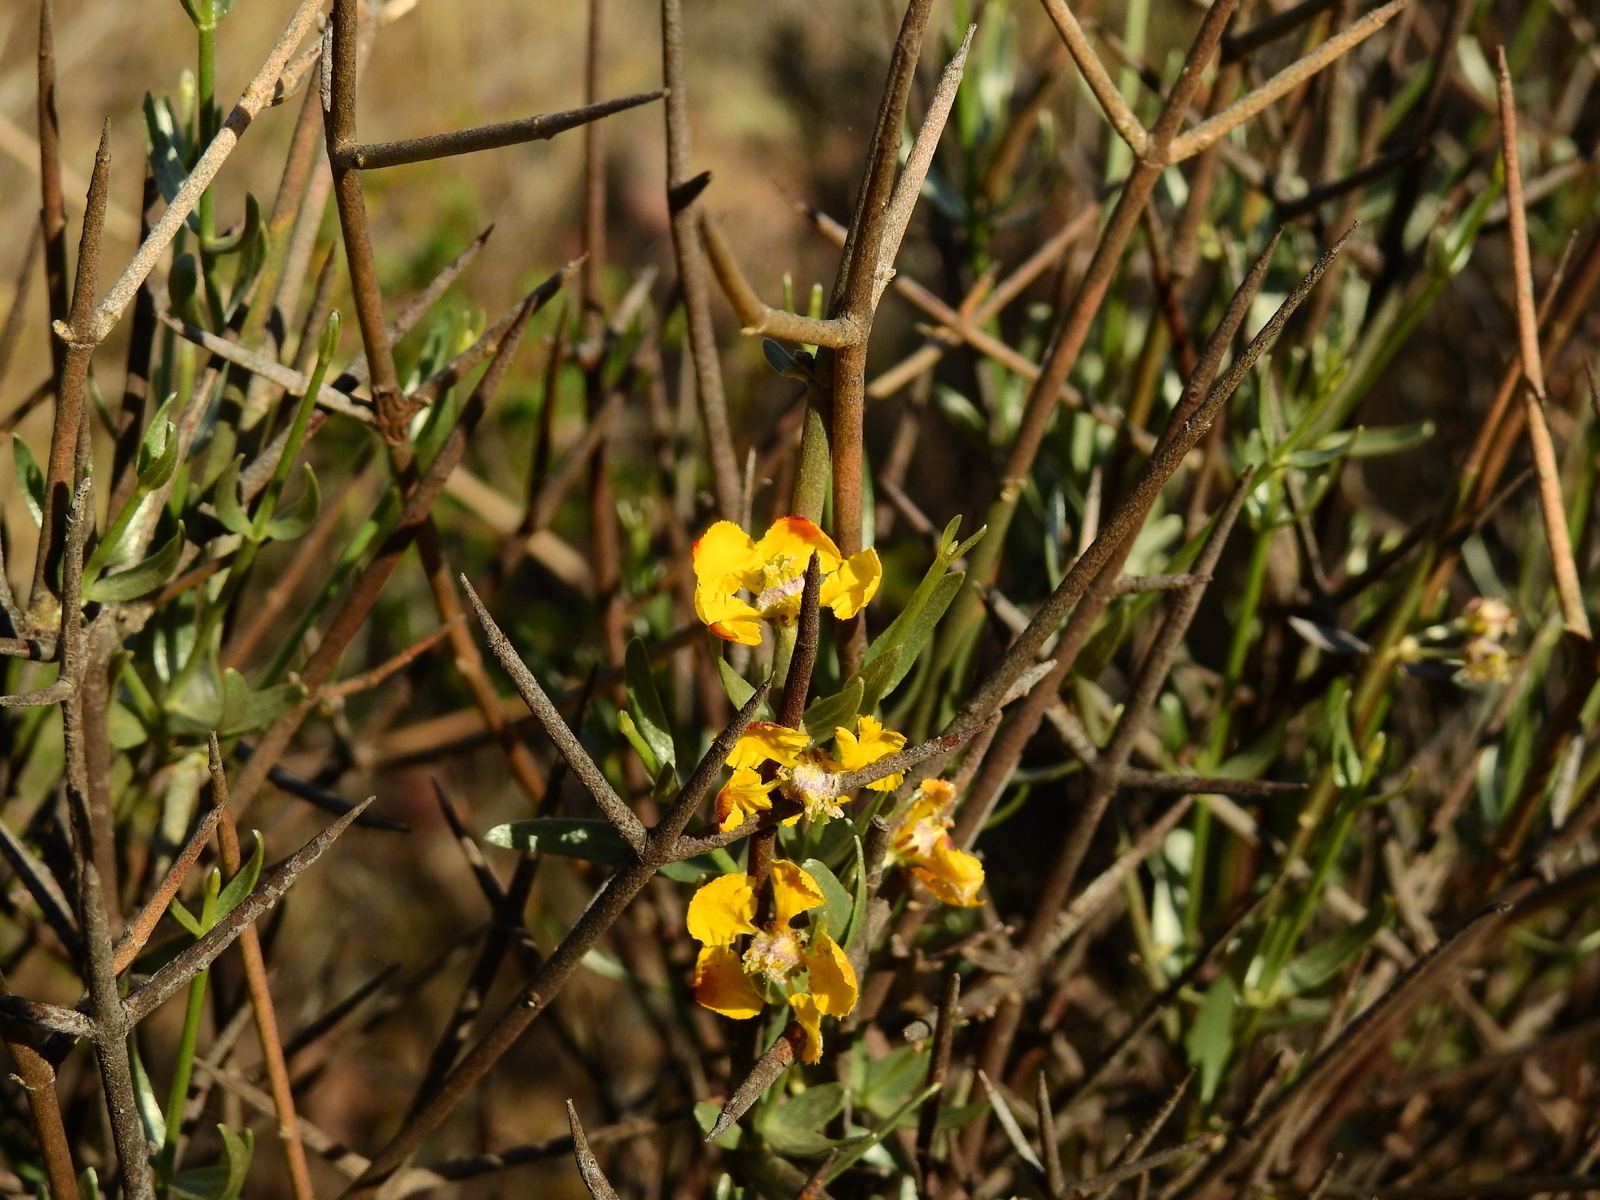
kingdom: Plantae
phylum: Tracheophyta
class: Magnoliopsida
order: Malpighiales
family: Malpighiaceae
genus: Tricomaria
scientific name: Tricomaria usillo
